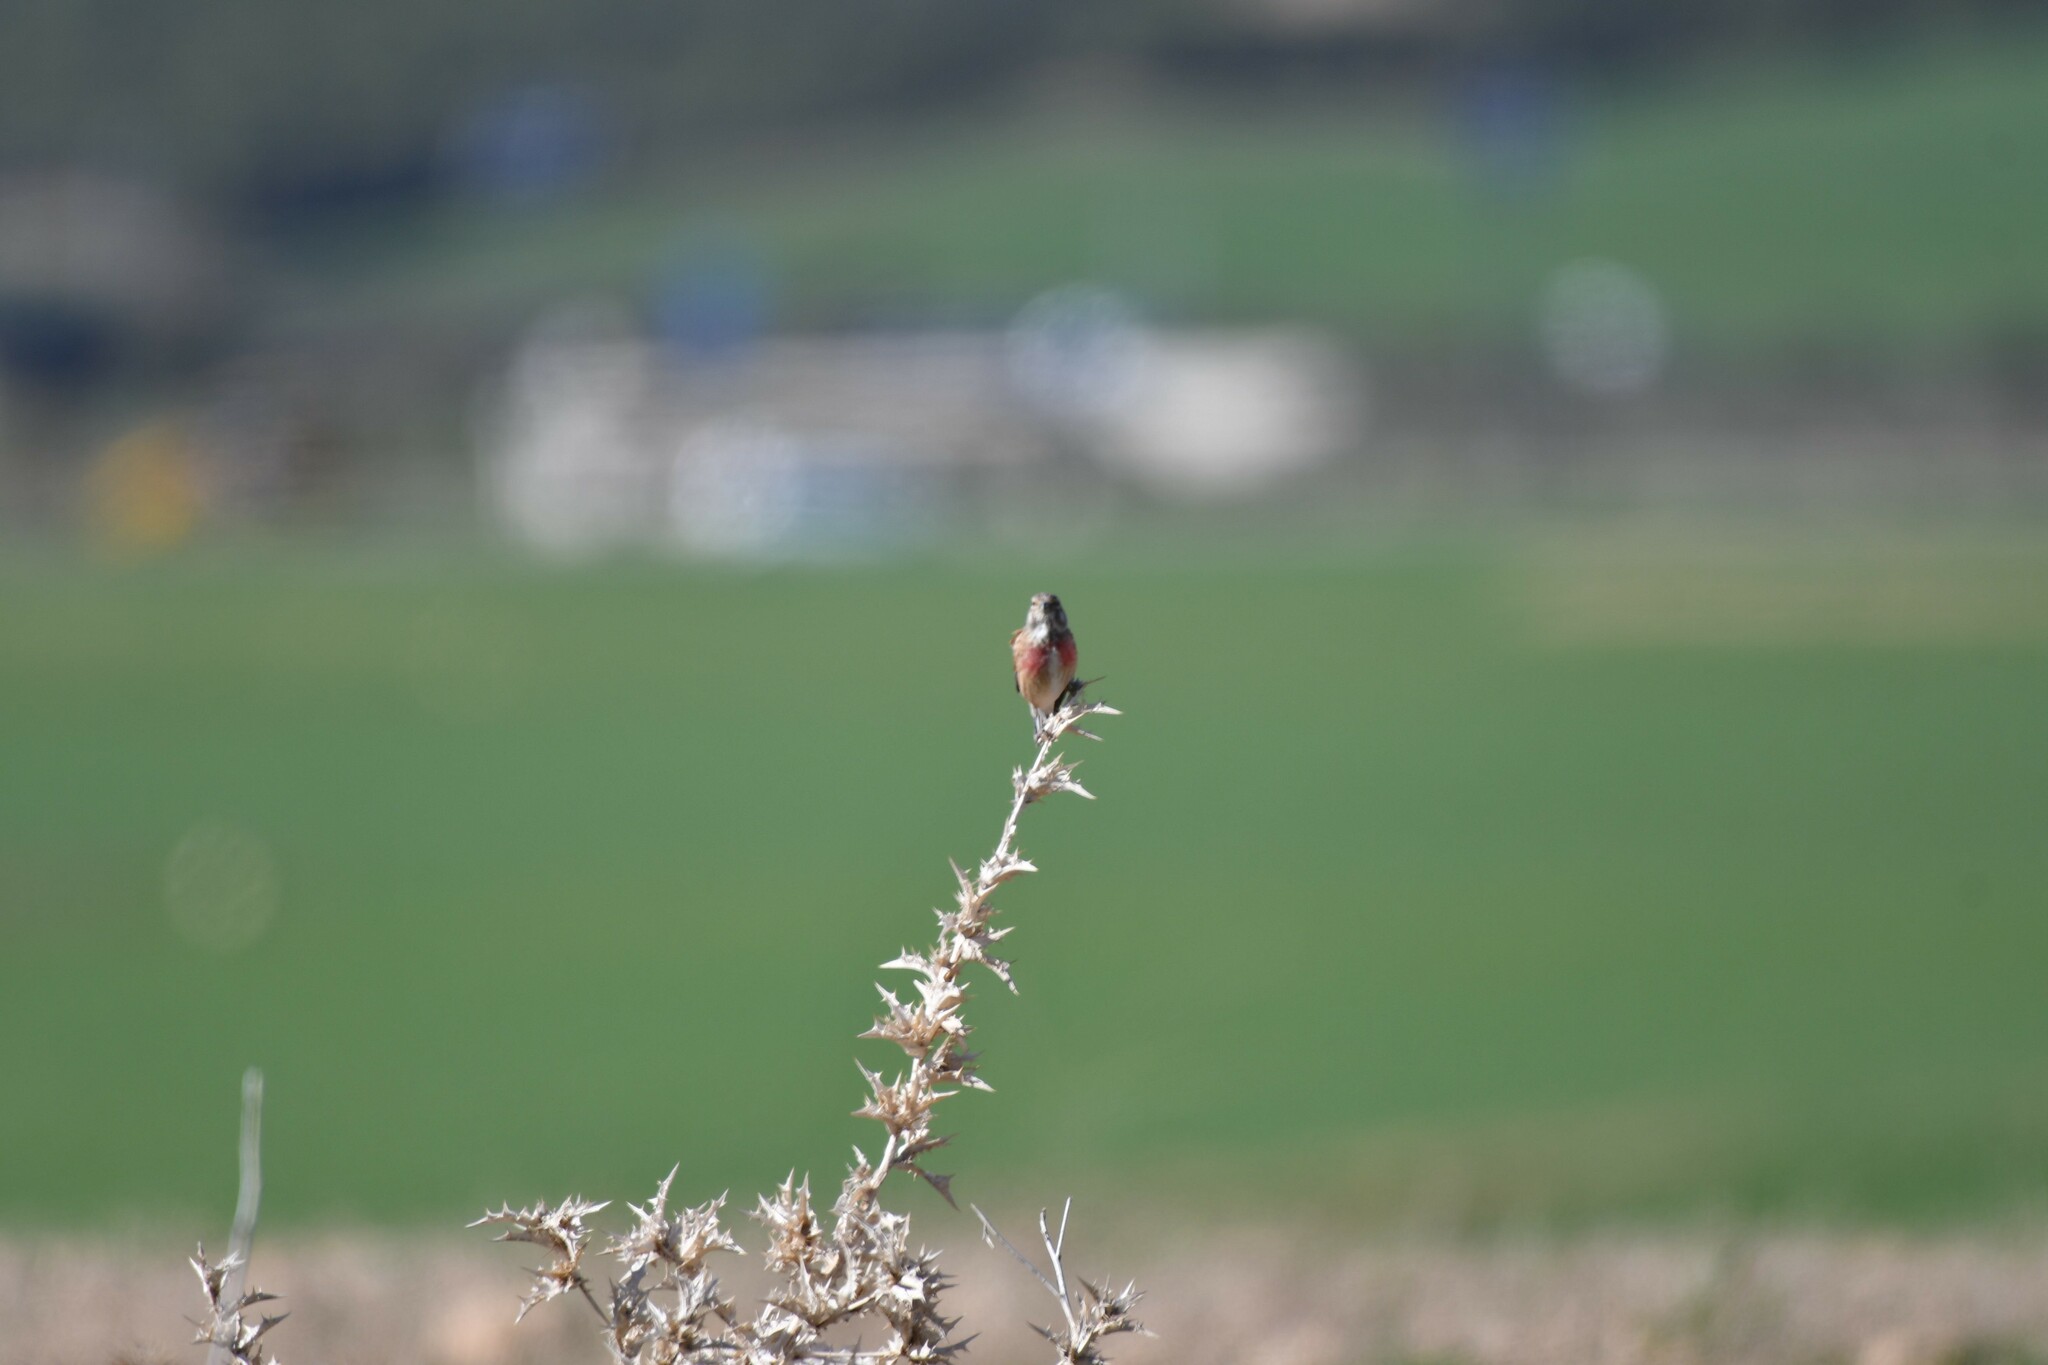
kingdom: Animalia
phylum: Chordata
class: Aves
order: Passeriformes
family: Fringillidae
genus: Linaria
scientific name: Linaria cannabina
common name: Common linnet
